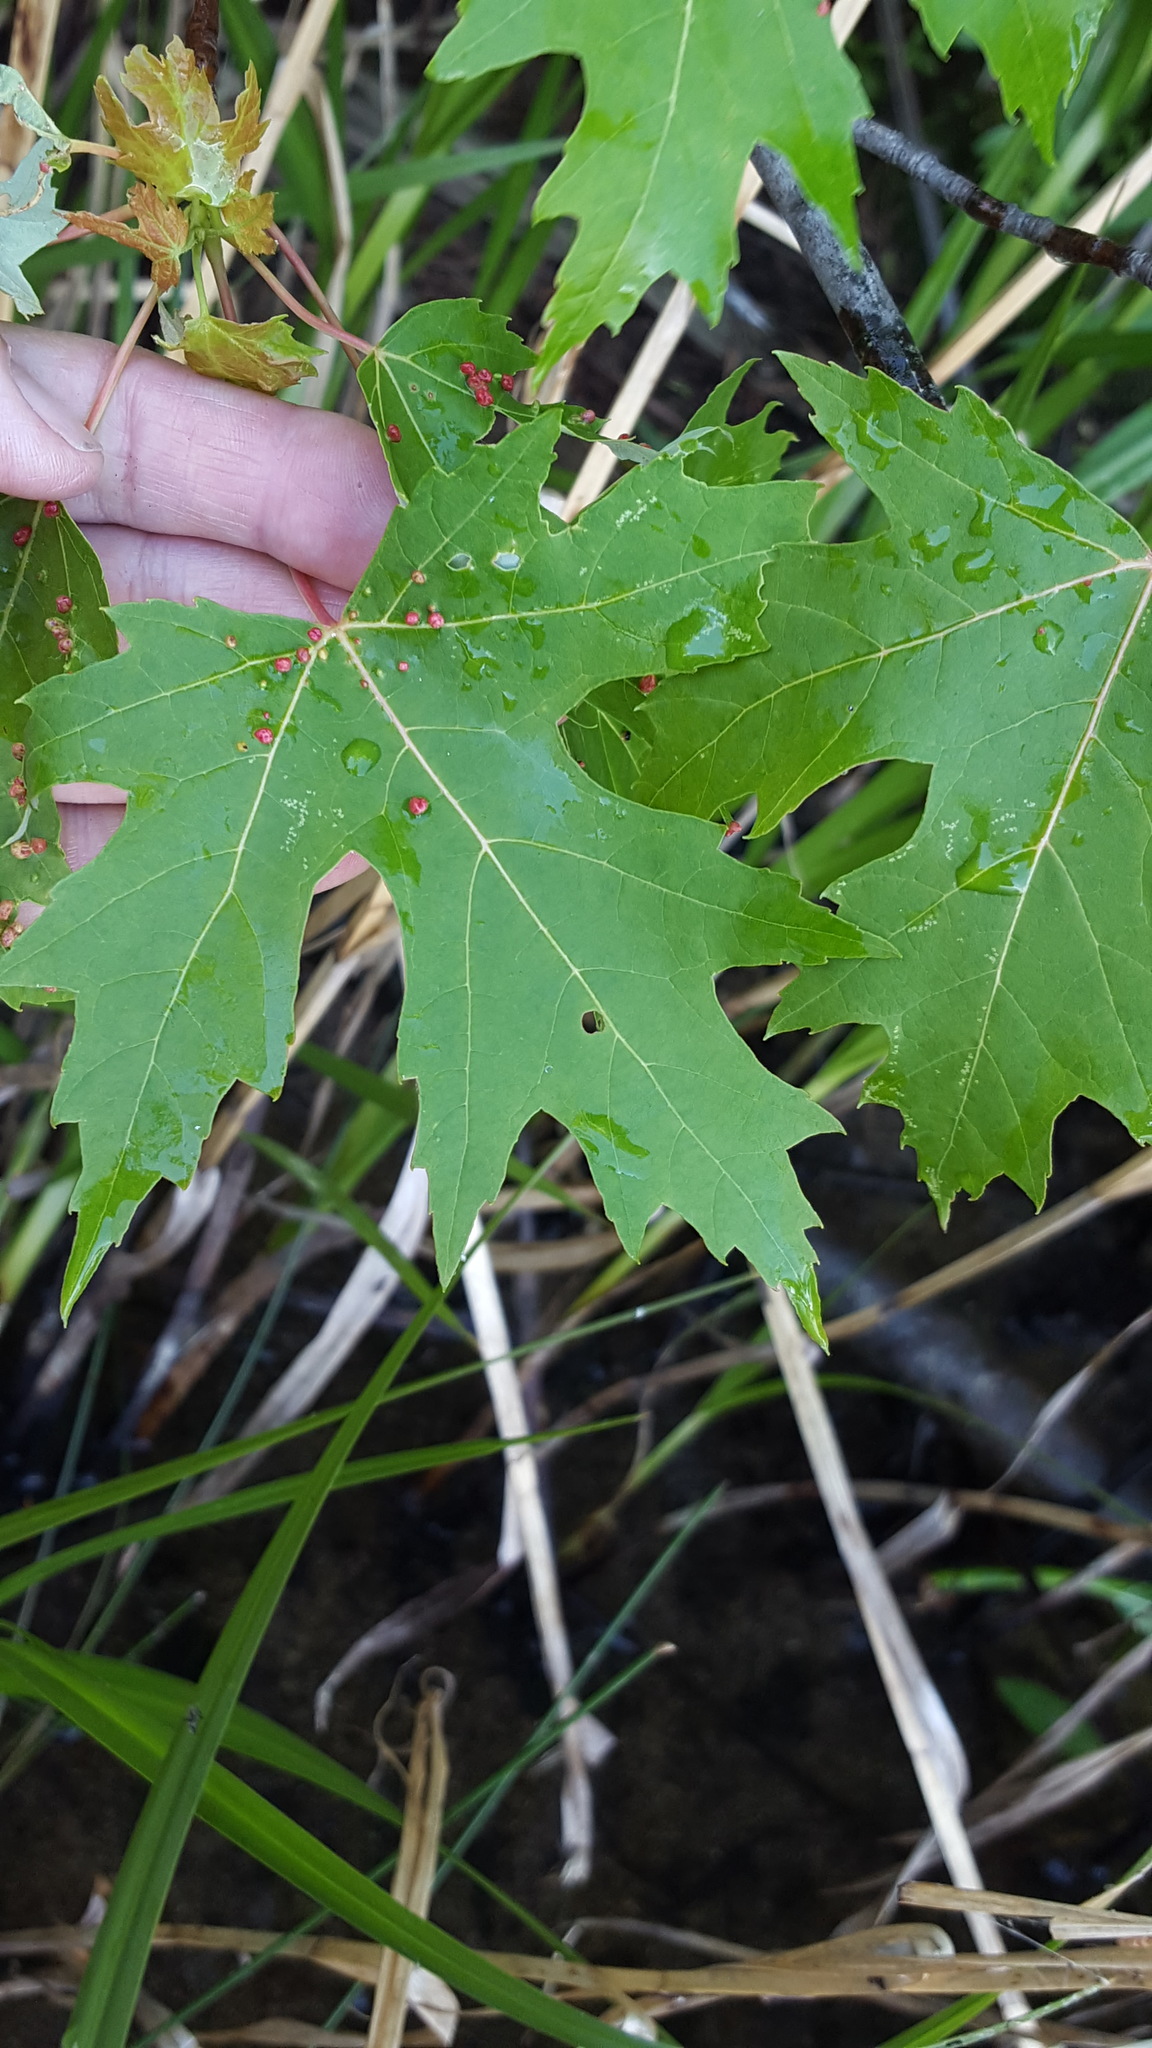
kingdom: Plantae
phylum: Tracheophyta
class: Magnoliopsida
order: Sapindales
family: Sapindaceae
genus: Acer
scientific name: Acer saccharinum
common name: Silver maple
